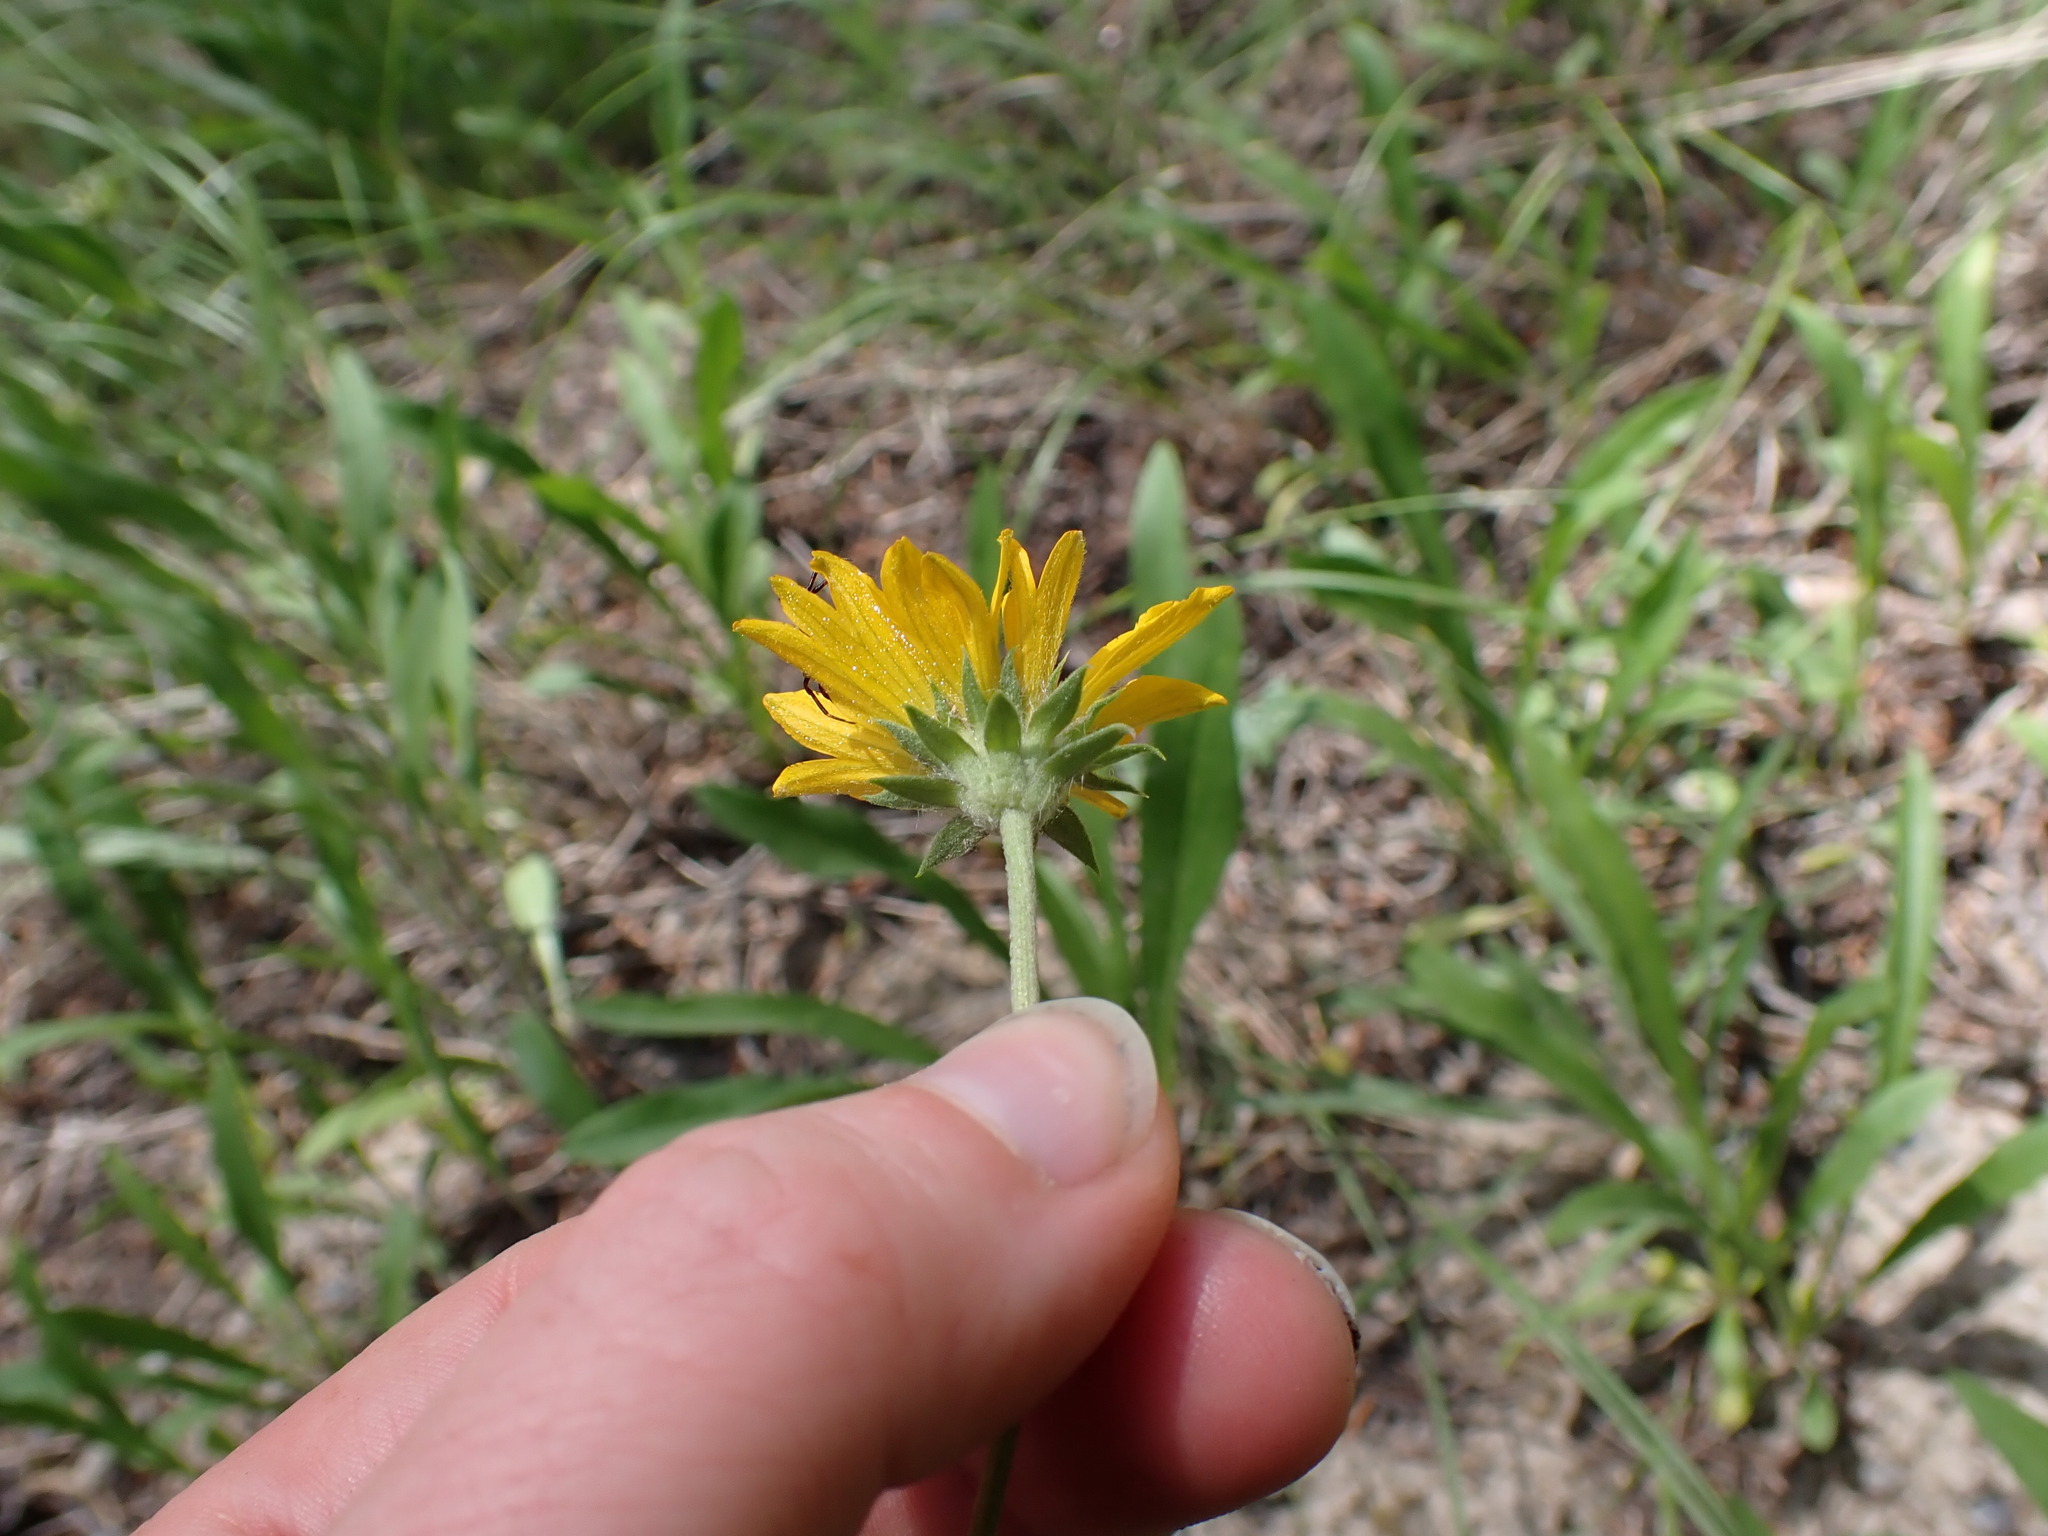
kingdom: Plantae
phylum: Tracheophyta
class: Magnoliopsida
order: Asterales
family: Asteraceae
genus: Gaillardia
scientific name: Gaillardia aristata
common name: Blanket-flower
